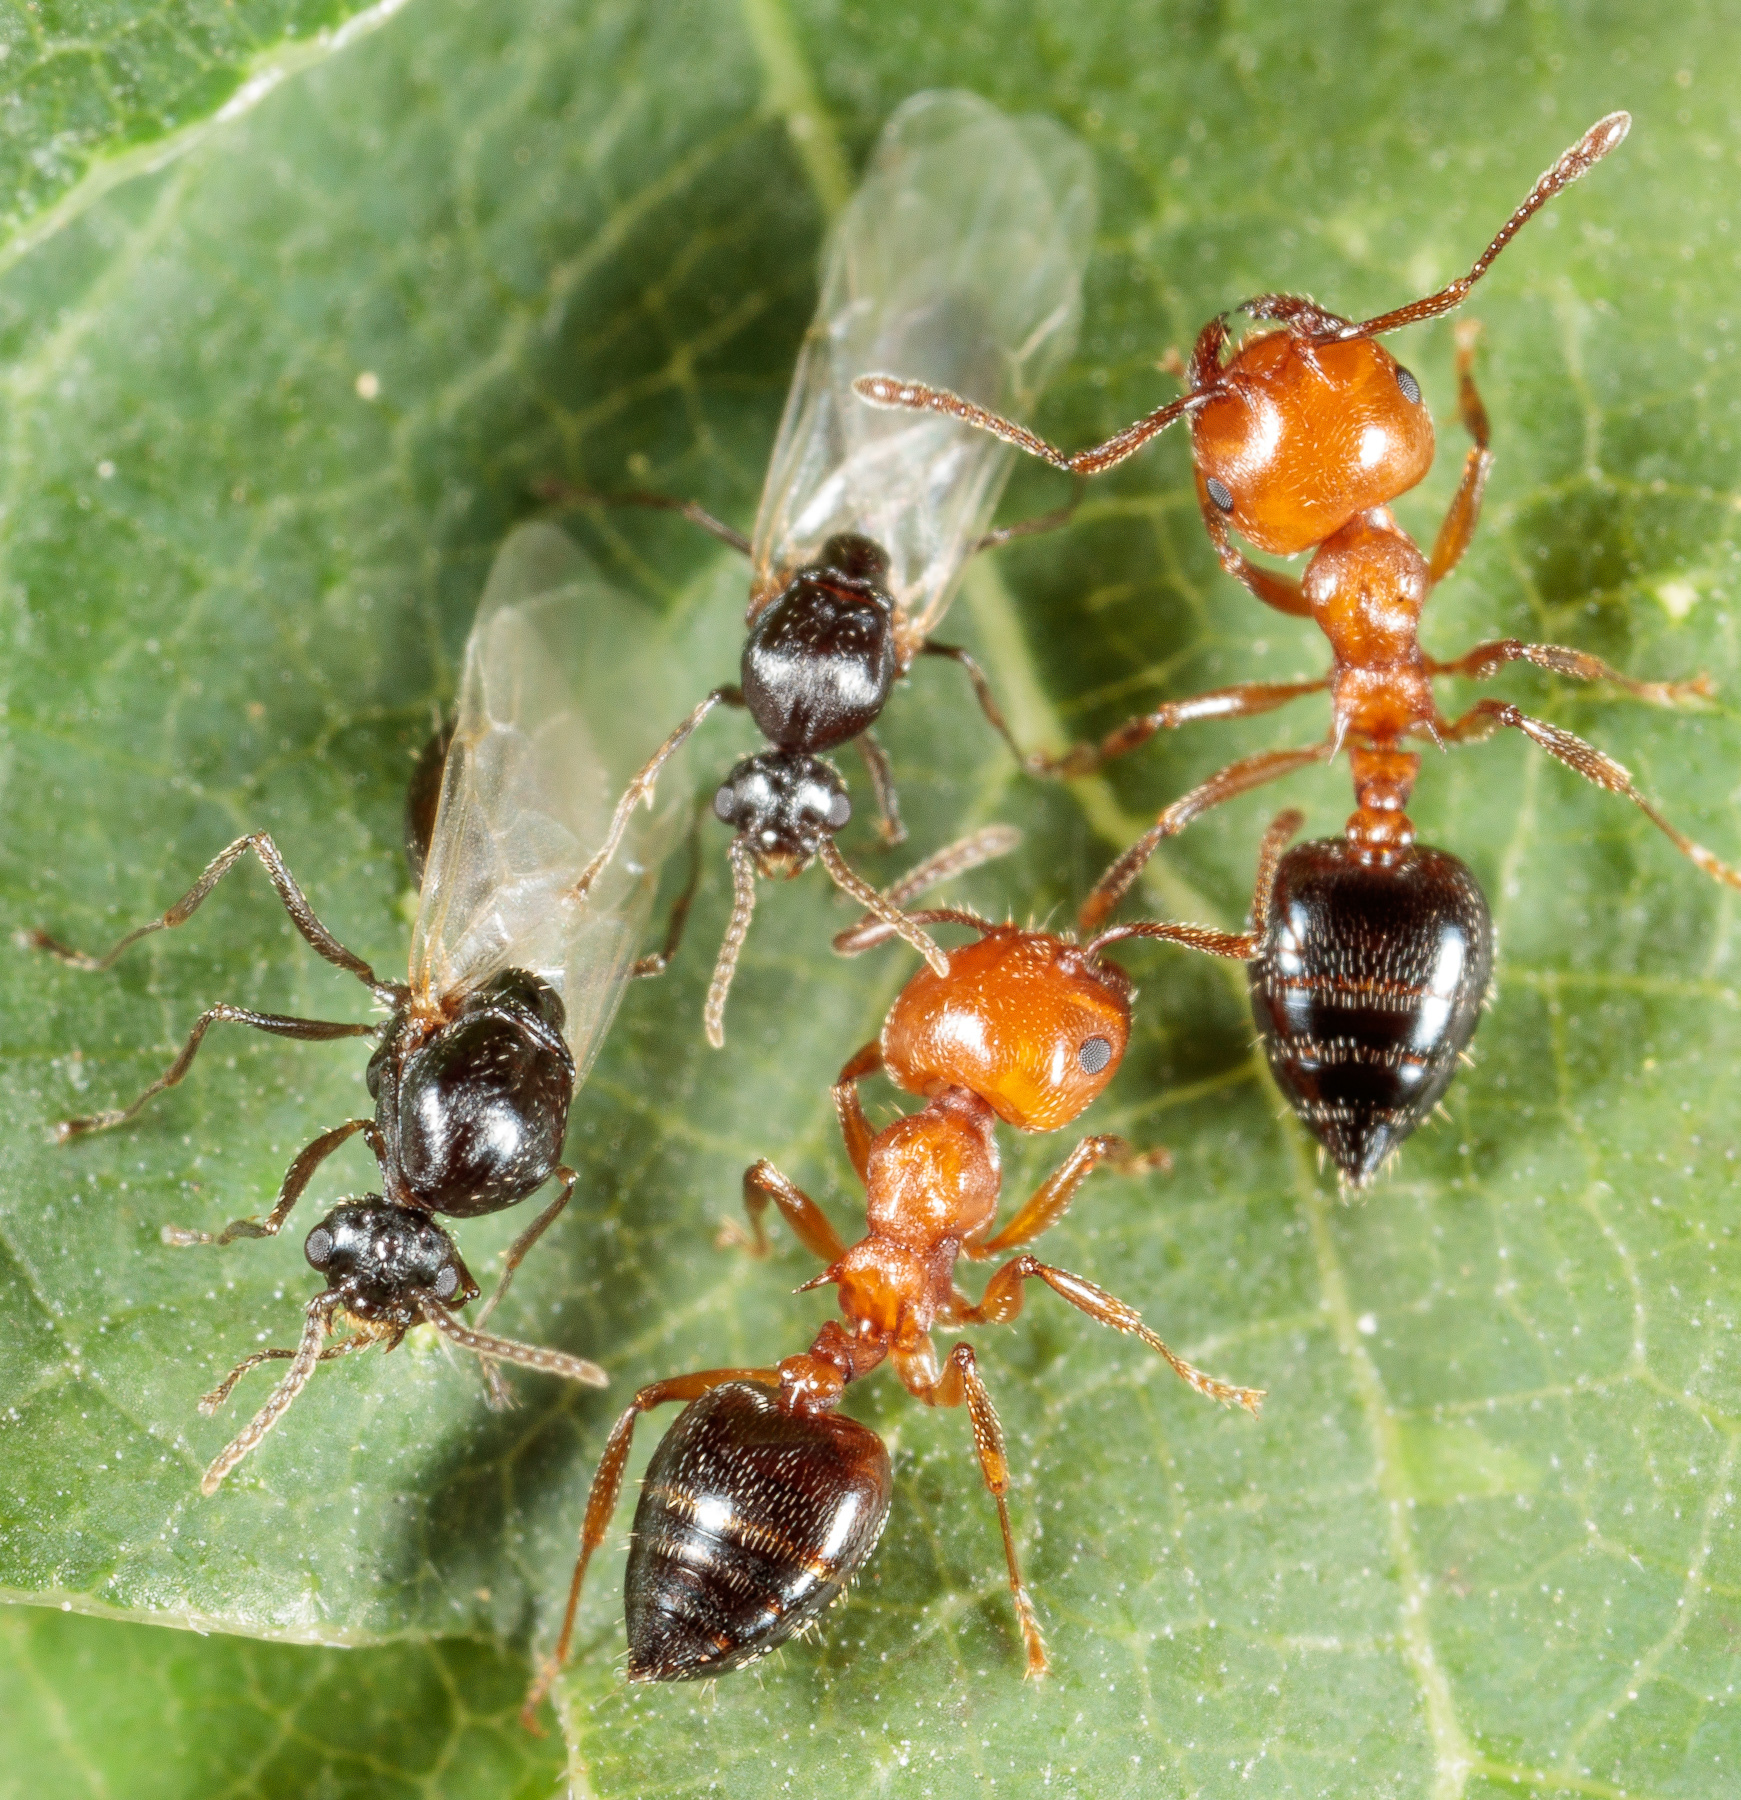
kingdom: Animalia
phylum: Arthropoda
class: Insecta
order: Hymenoptera
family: Formicidae
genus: Crematogaster
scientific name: Crematogaster laeviuscula
